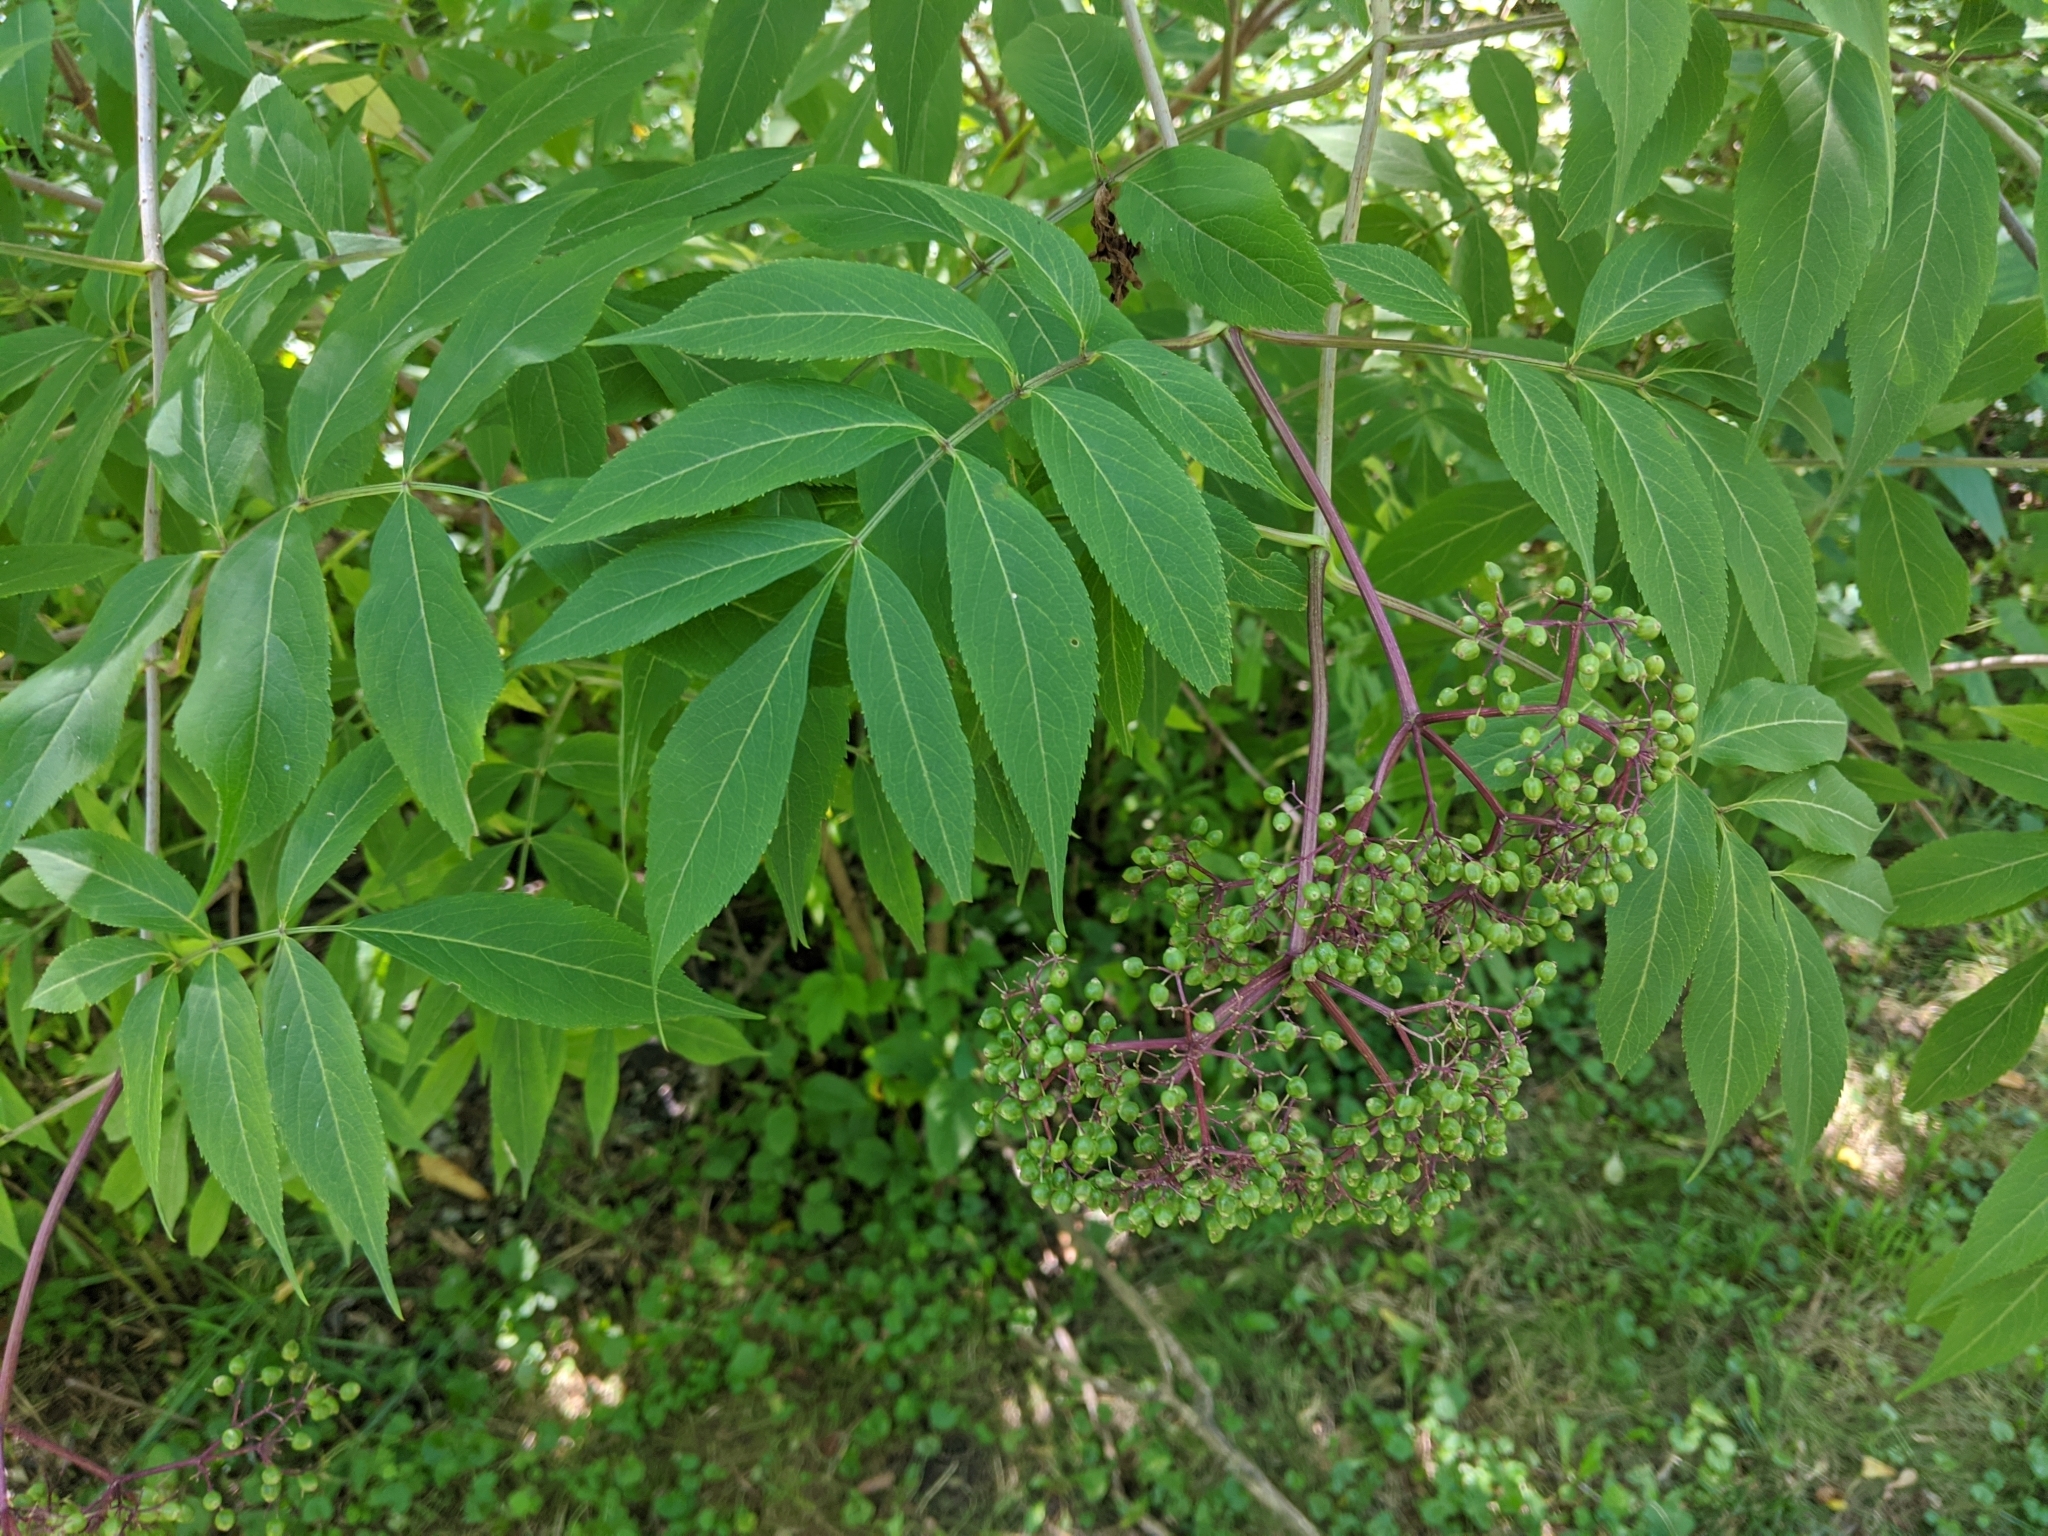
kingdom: Plantae
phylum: Tracheophyta
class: Magnoliopsida
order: Dipsacales
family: Viburnaceae
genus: Sambucus
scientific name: Sambucus canadensis
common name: American elder
